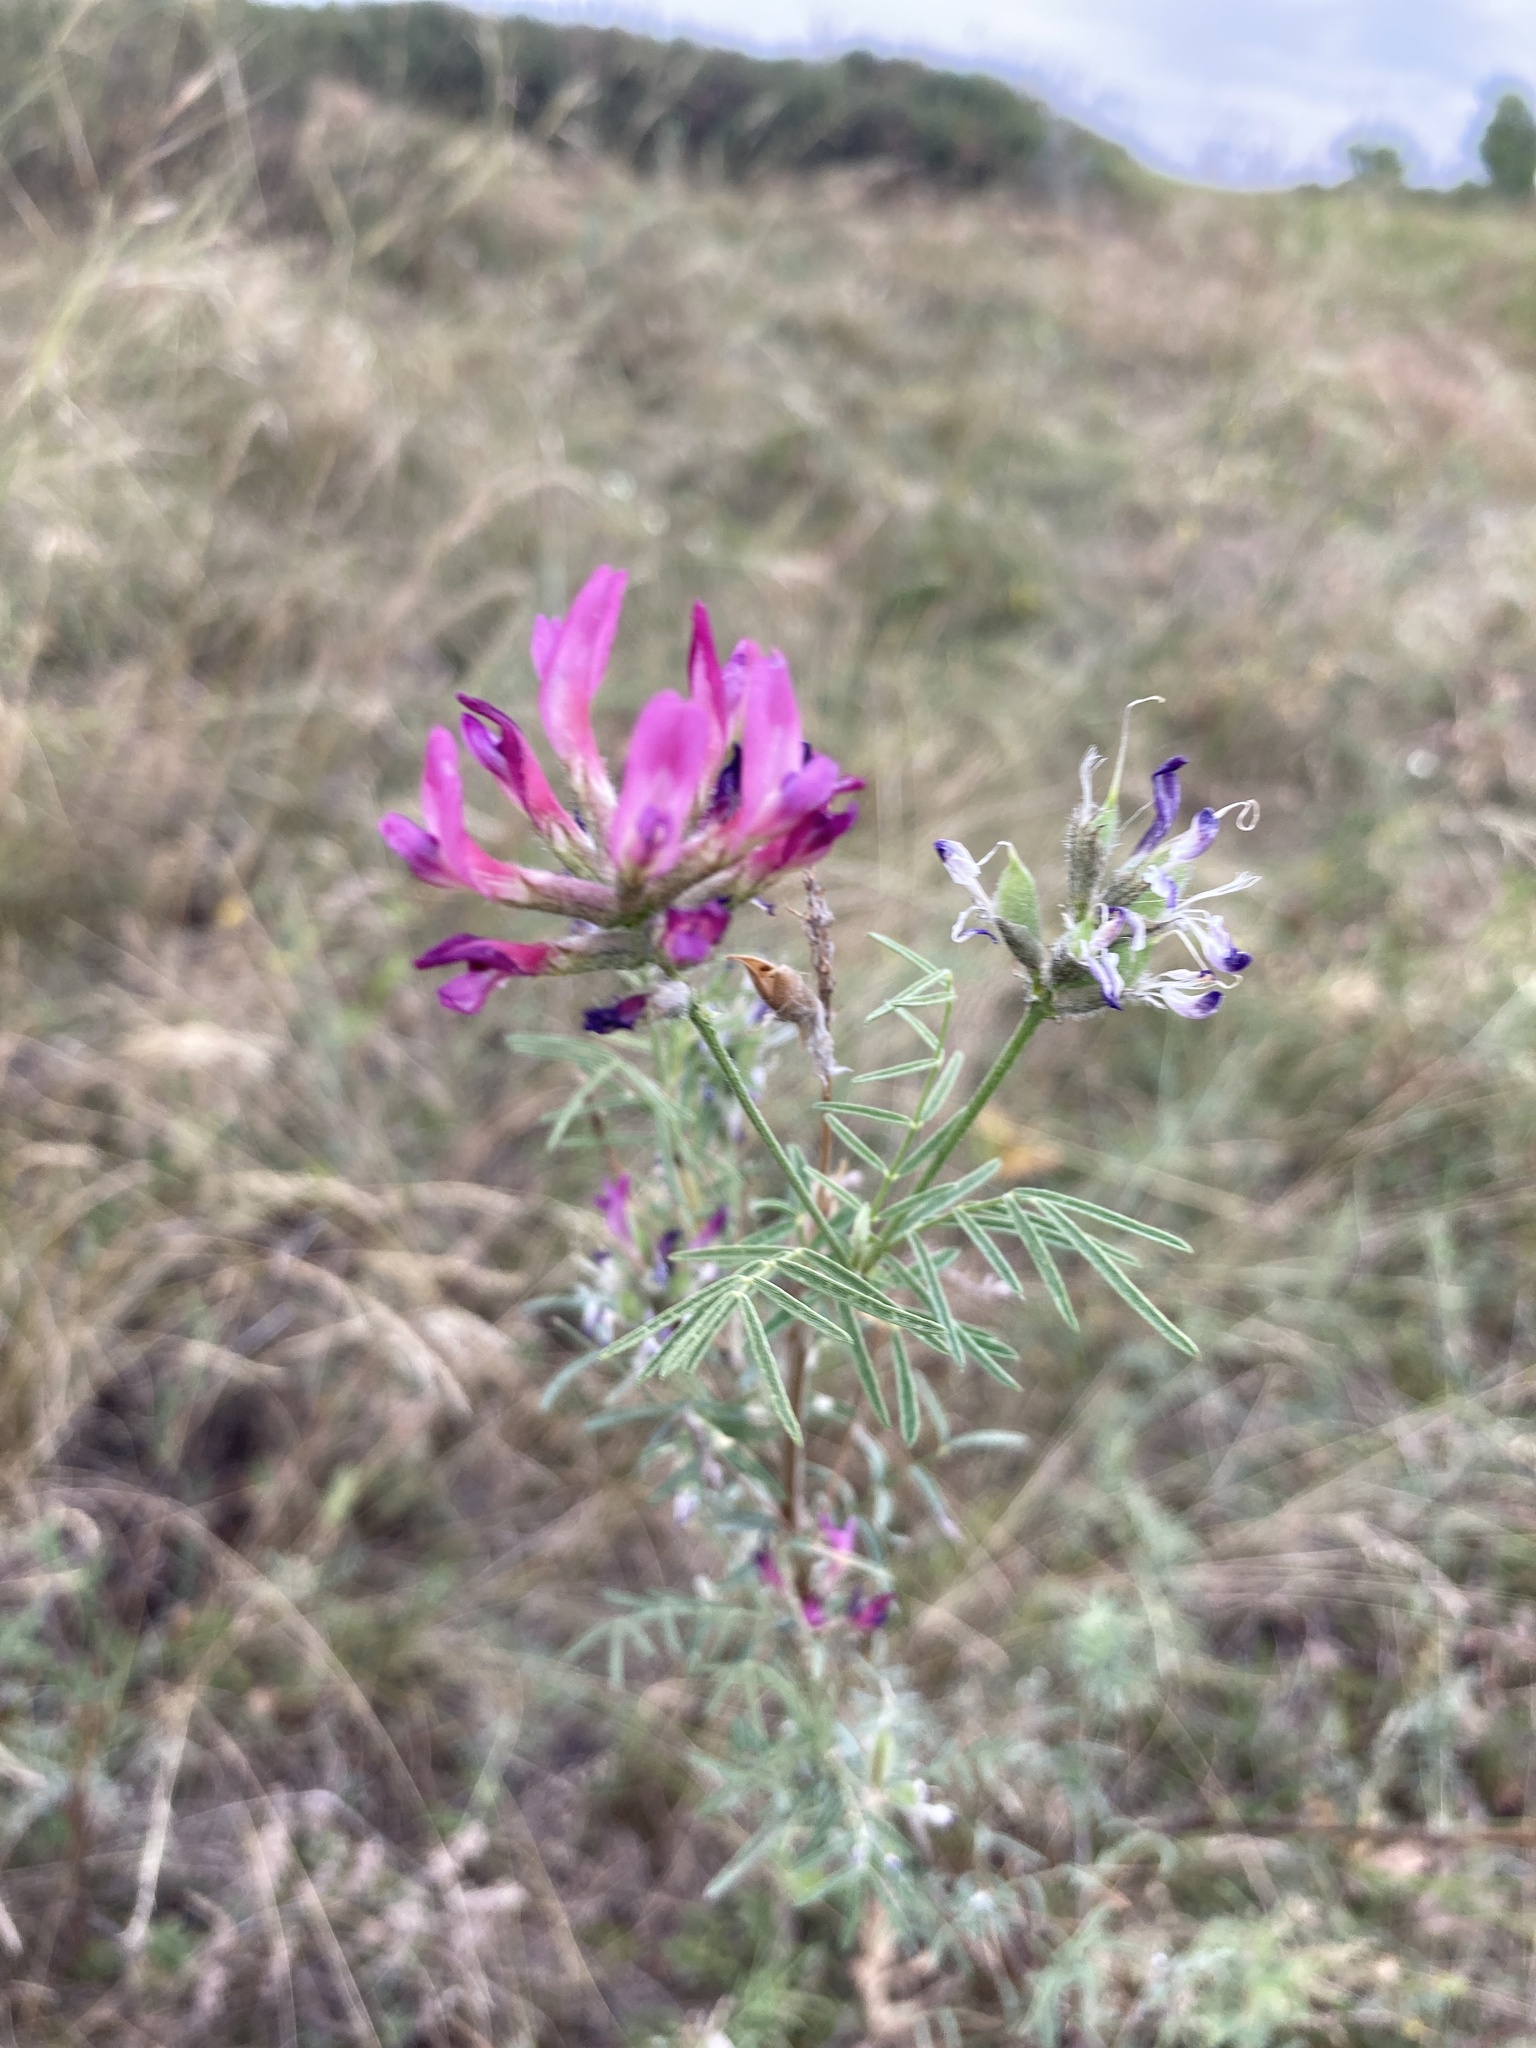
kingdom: Plantae
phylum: Tracheophyta
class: Magnoliopsida
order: Fabales
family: Fabaceae
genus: Astragalus
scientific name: Astragalus cornutus
